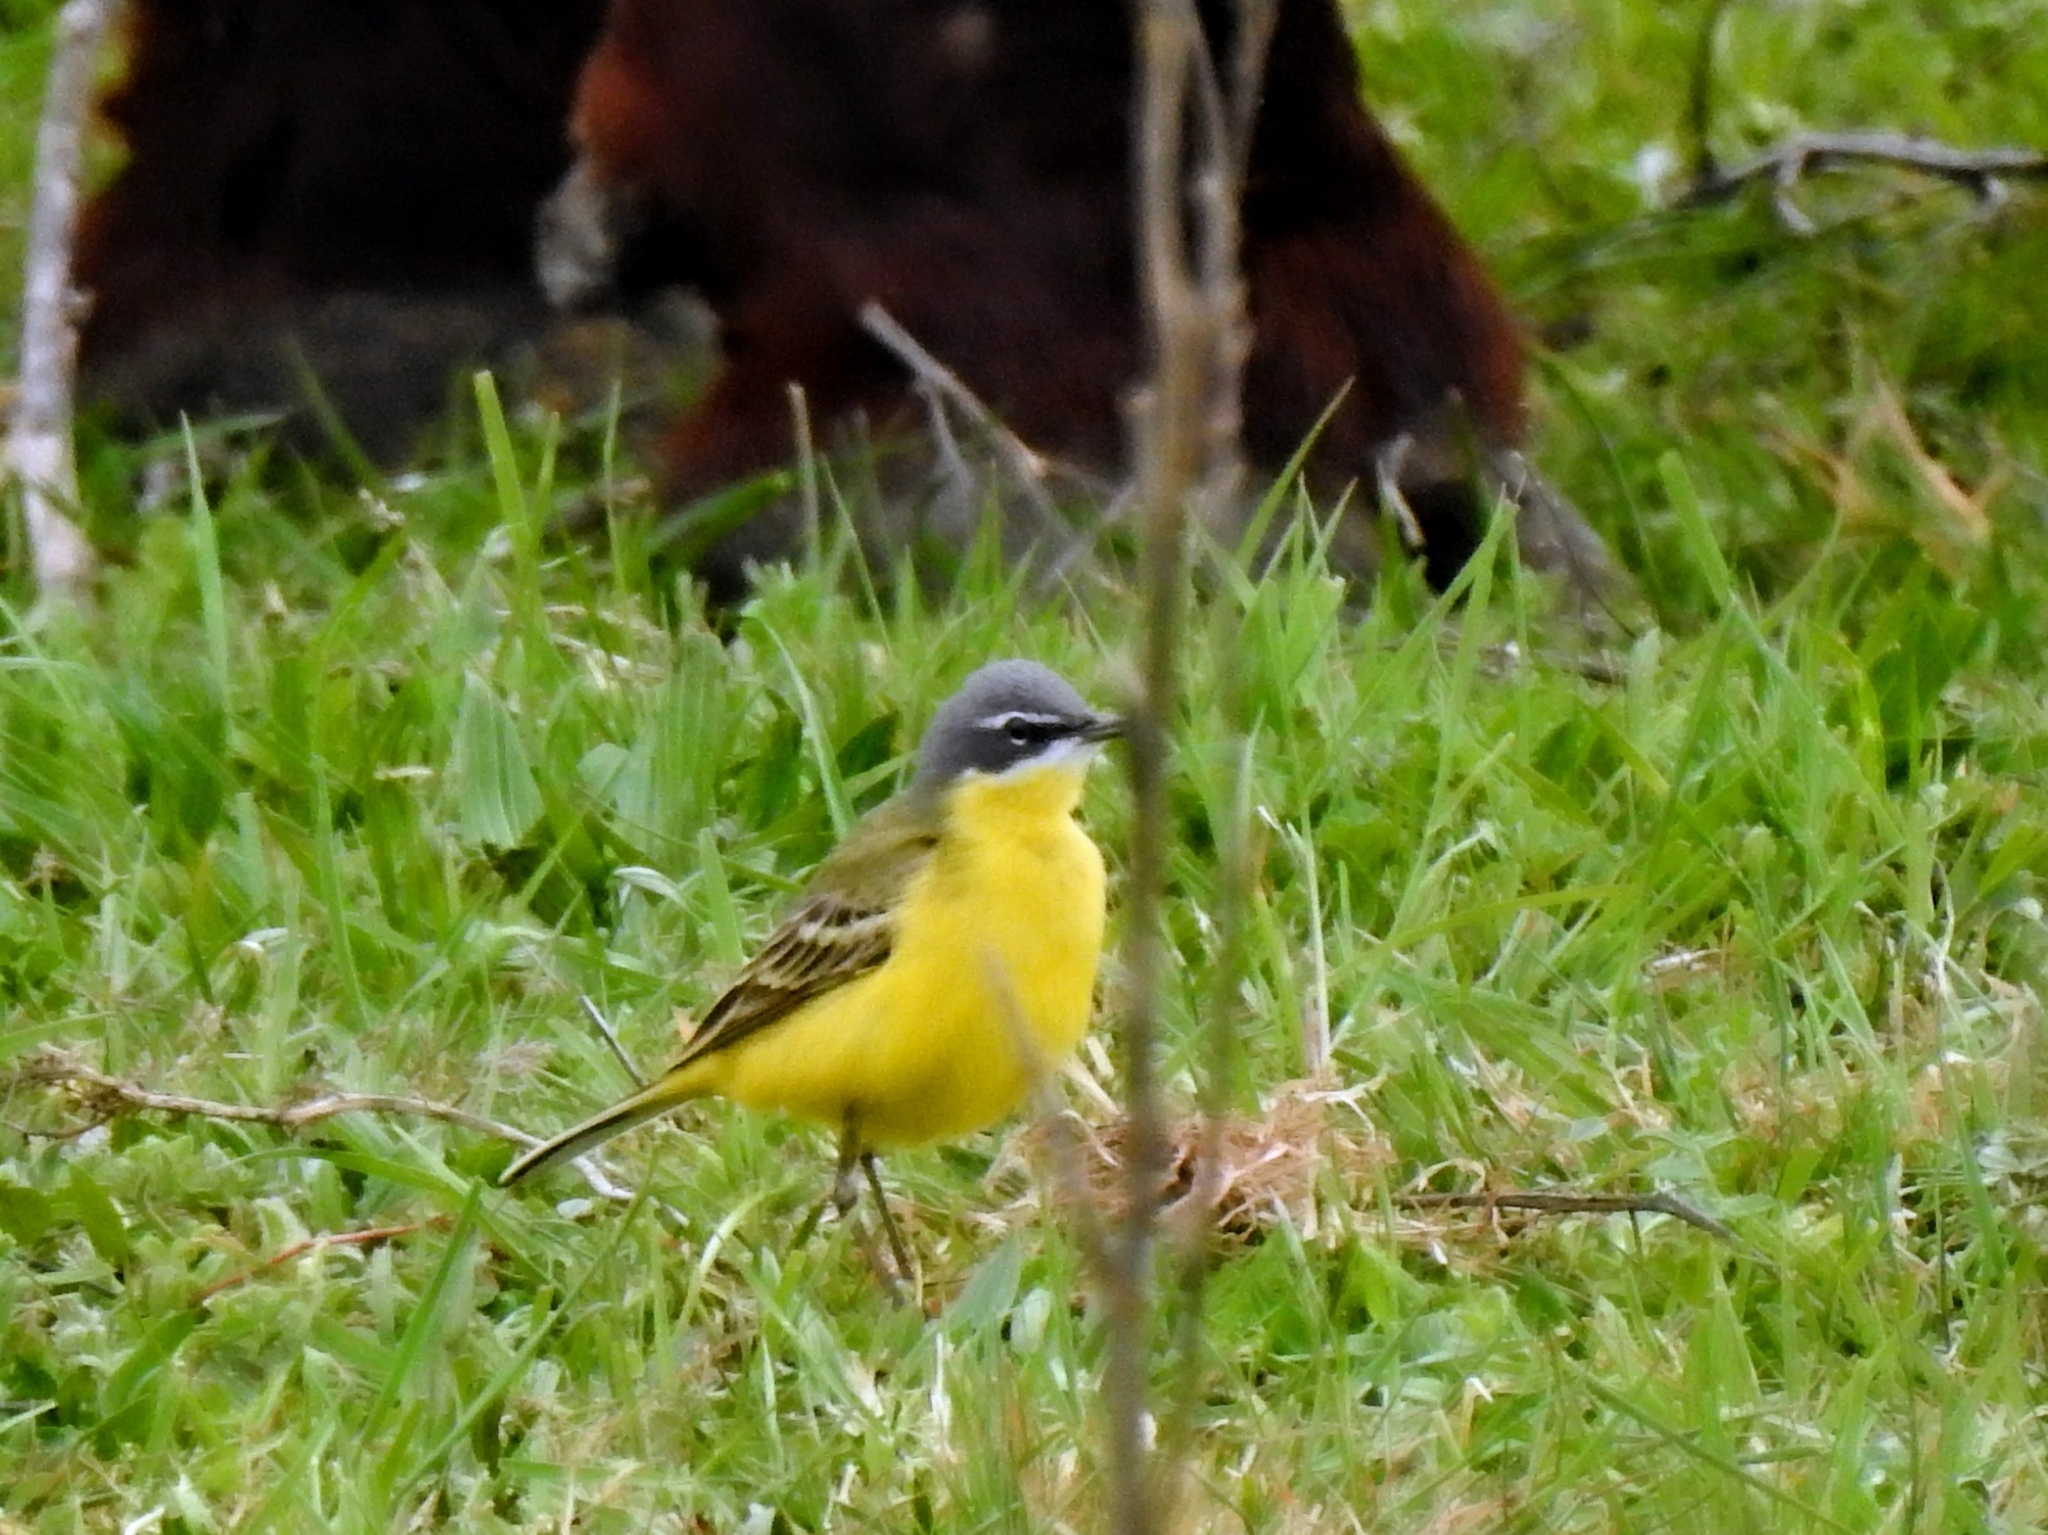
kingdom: Animalia
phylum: Chordata
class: Aves
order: Passeriformes
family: Motacillidae
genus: Motacilla
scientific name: Motacilla flava
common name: Western yellow wagtail
